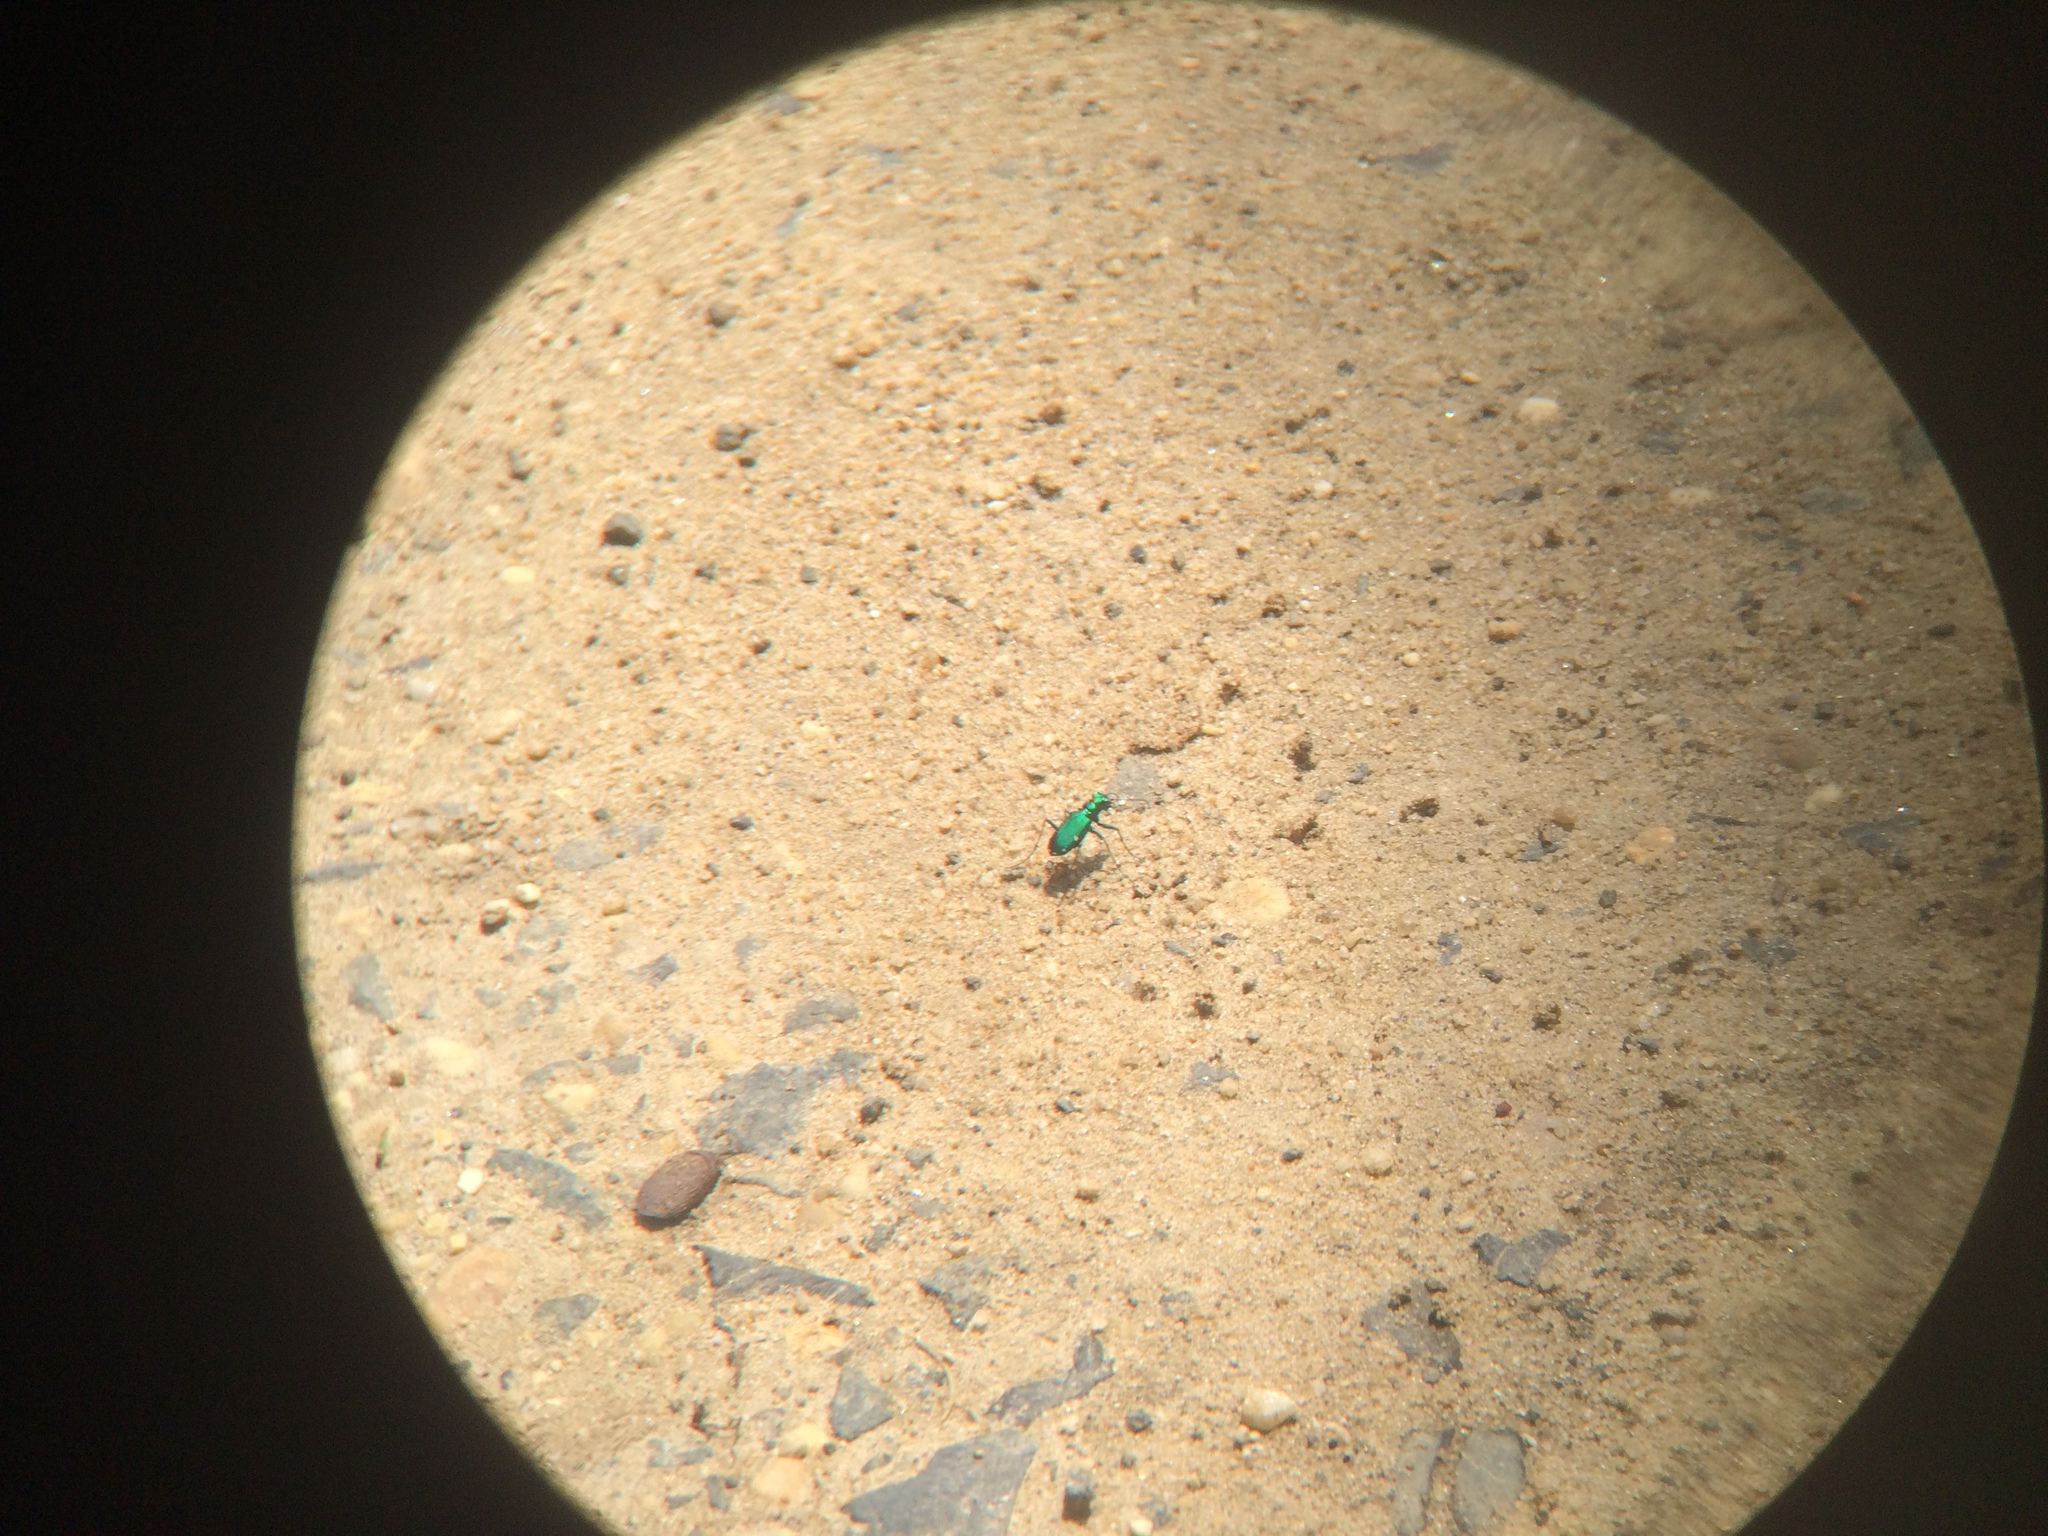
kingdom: Animalia
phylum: Arthropoda
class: Insecta
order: Coleoptera
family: Carabidae
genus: Cicindela
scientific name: Cicindela sexguttata
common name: Six-spotted tiger beetle
